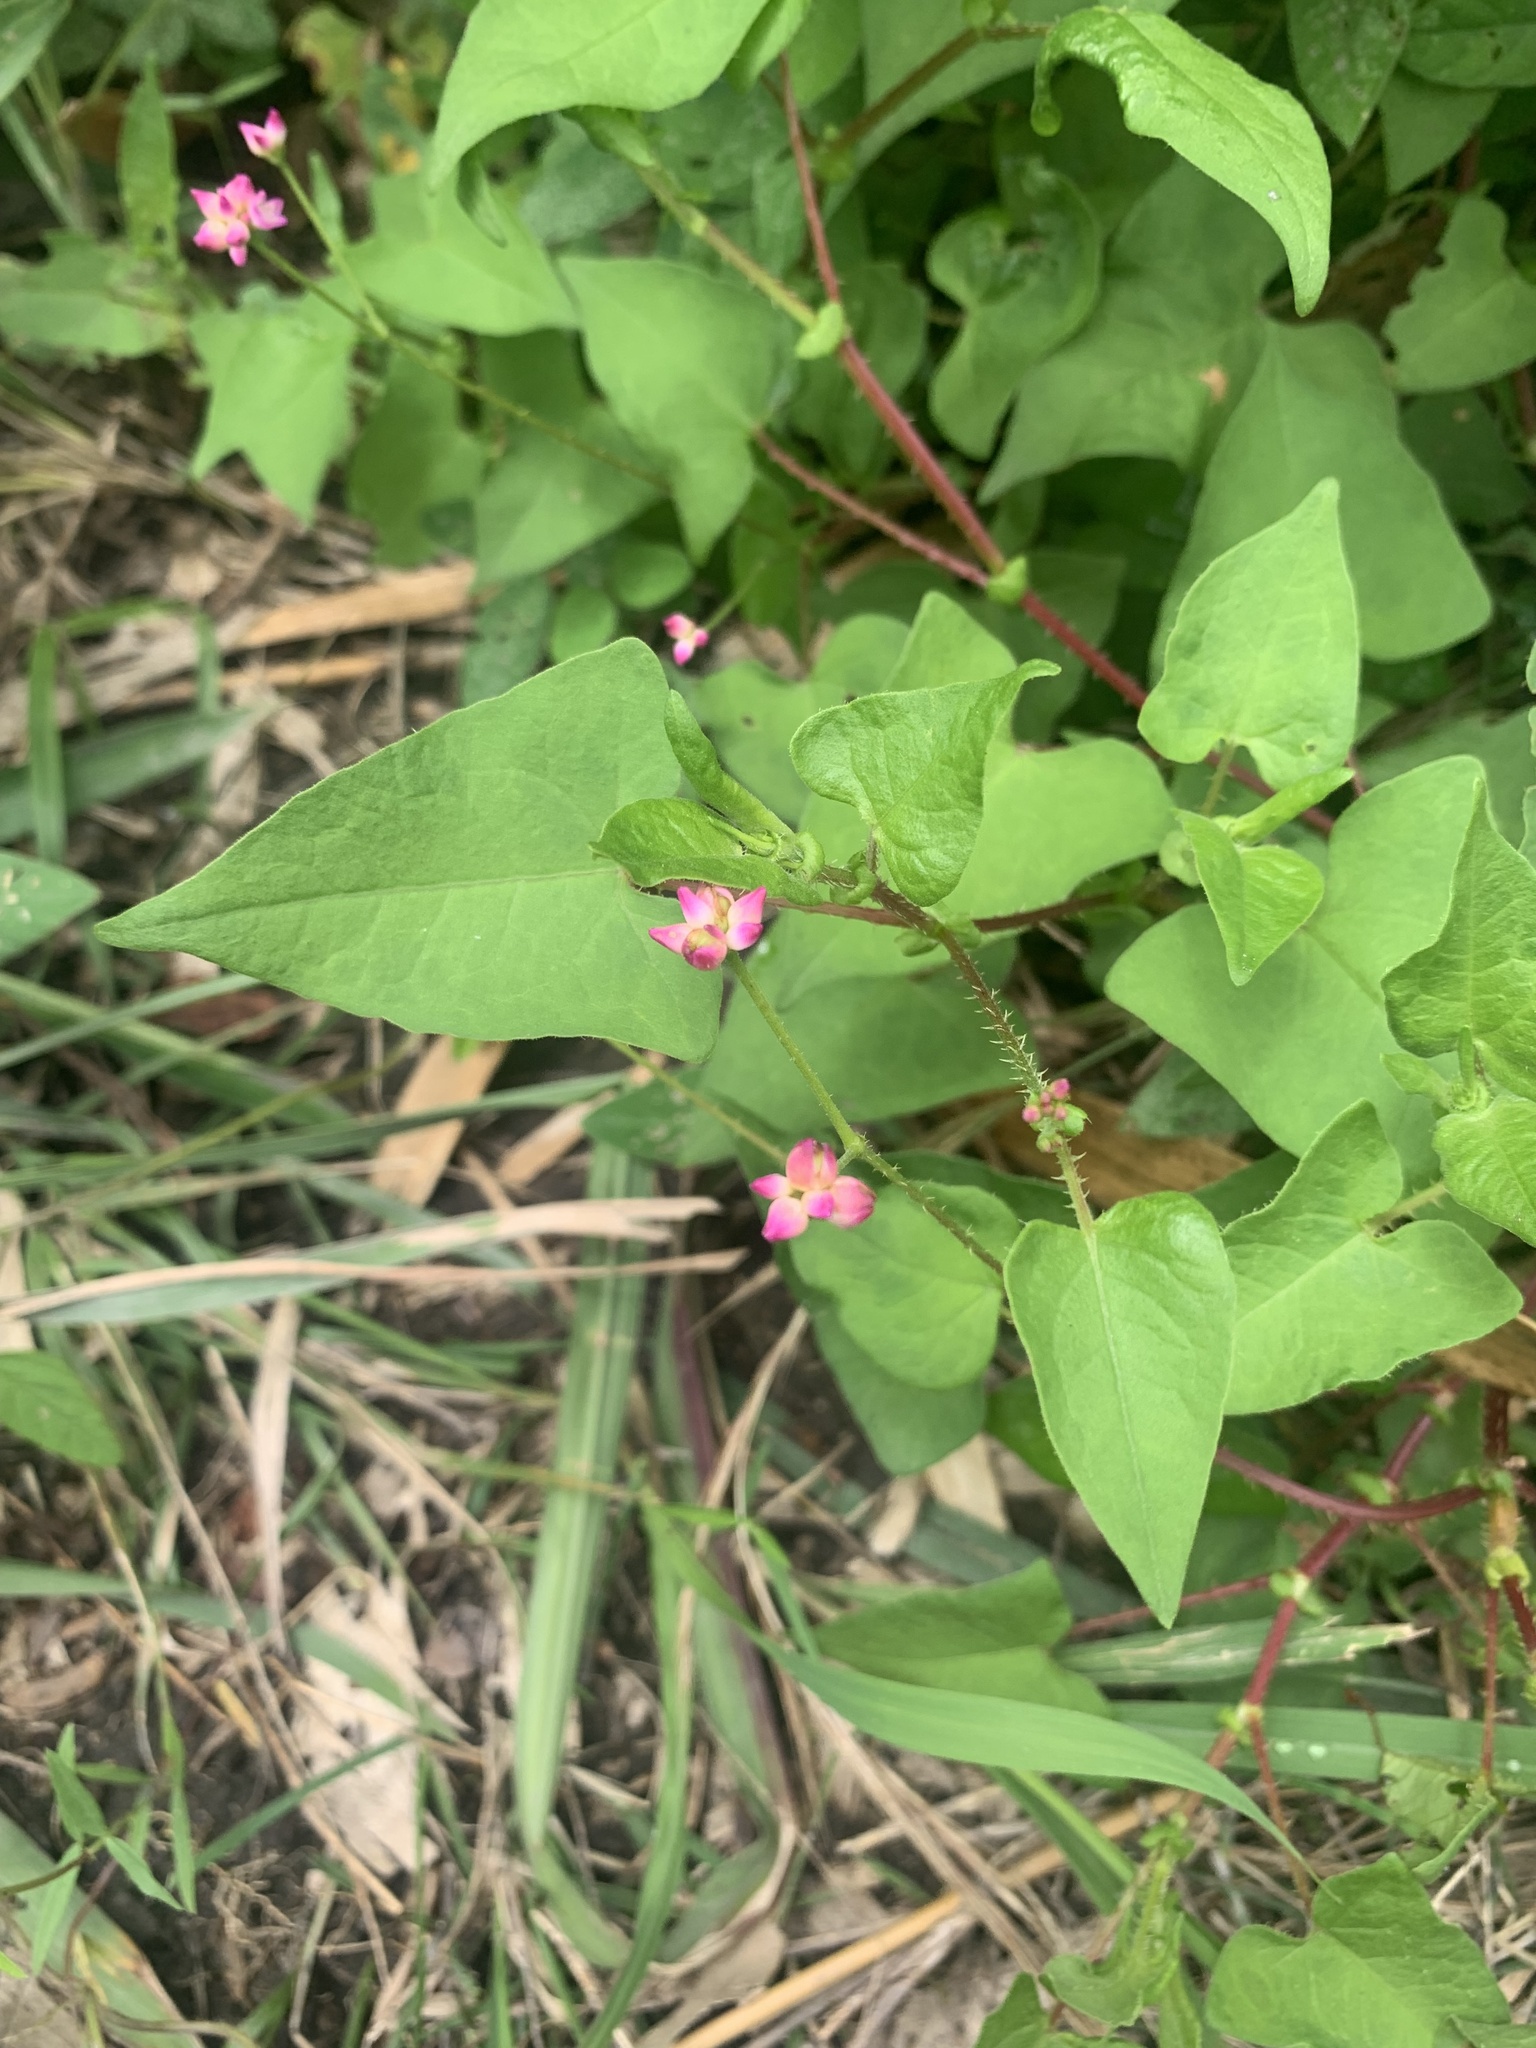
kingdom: Plantae
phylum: Tracheophyta
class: Magnoliopsida
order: Caryophyllales
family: Polygonaceae
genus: Persicaria
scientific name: Persicaria senticosa
